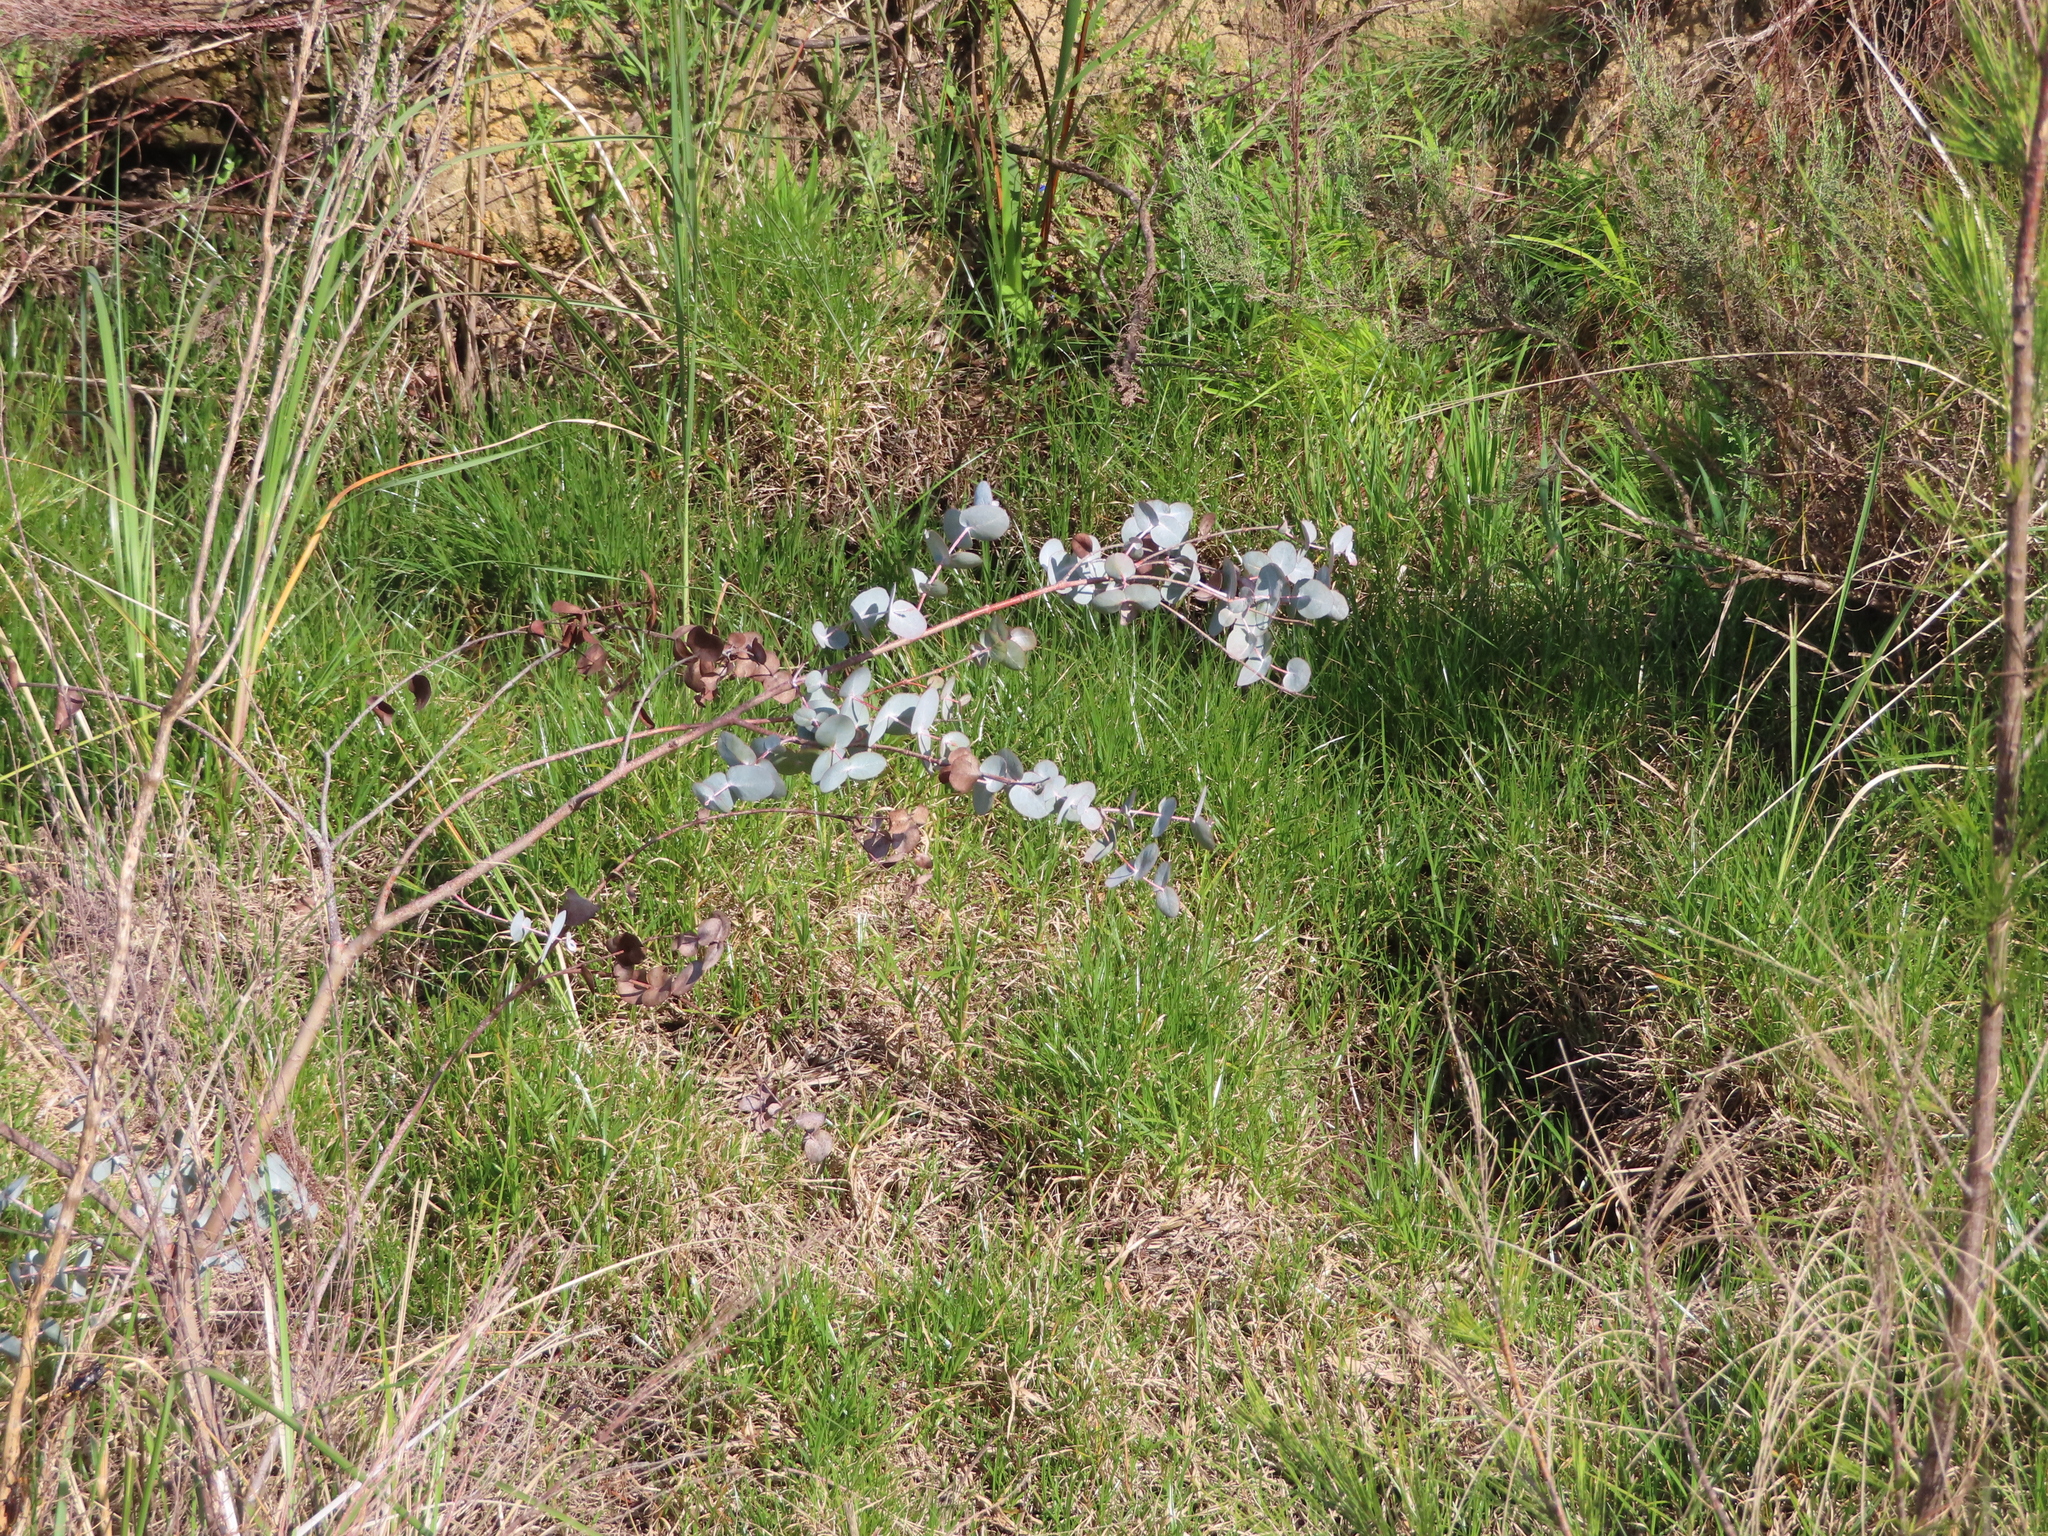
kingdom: Plantae
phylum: Tracheophyta
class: Magnoliopsida
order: Myrtales
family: Myrtaceae
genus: Eucalyptus
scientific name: Eucalyptus cinerea
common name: Argyle apple
